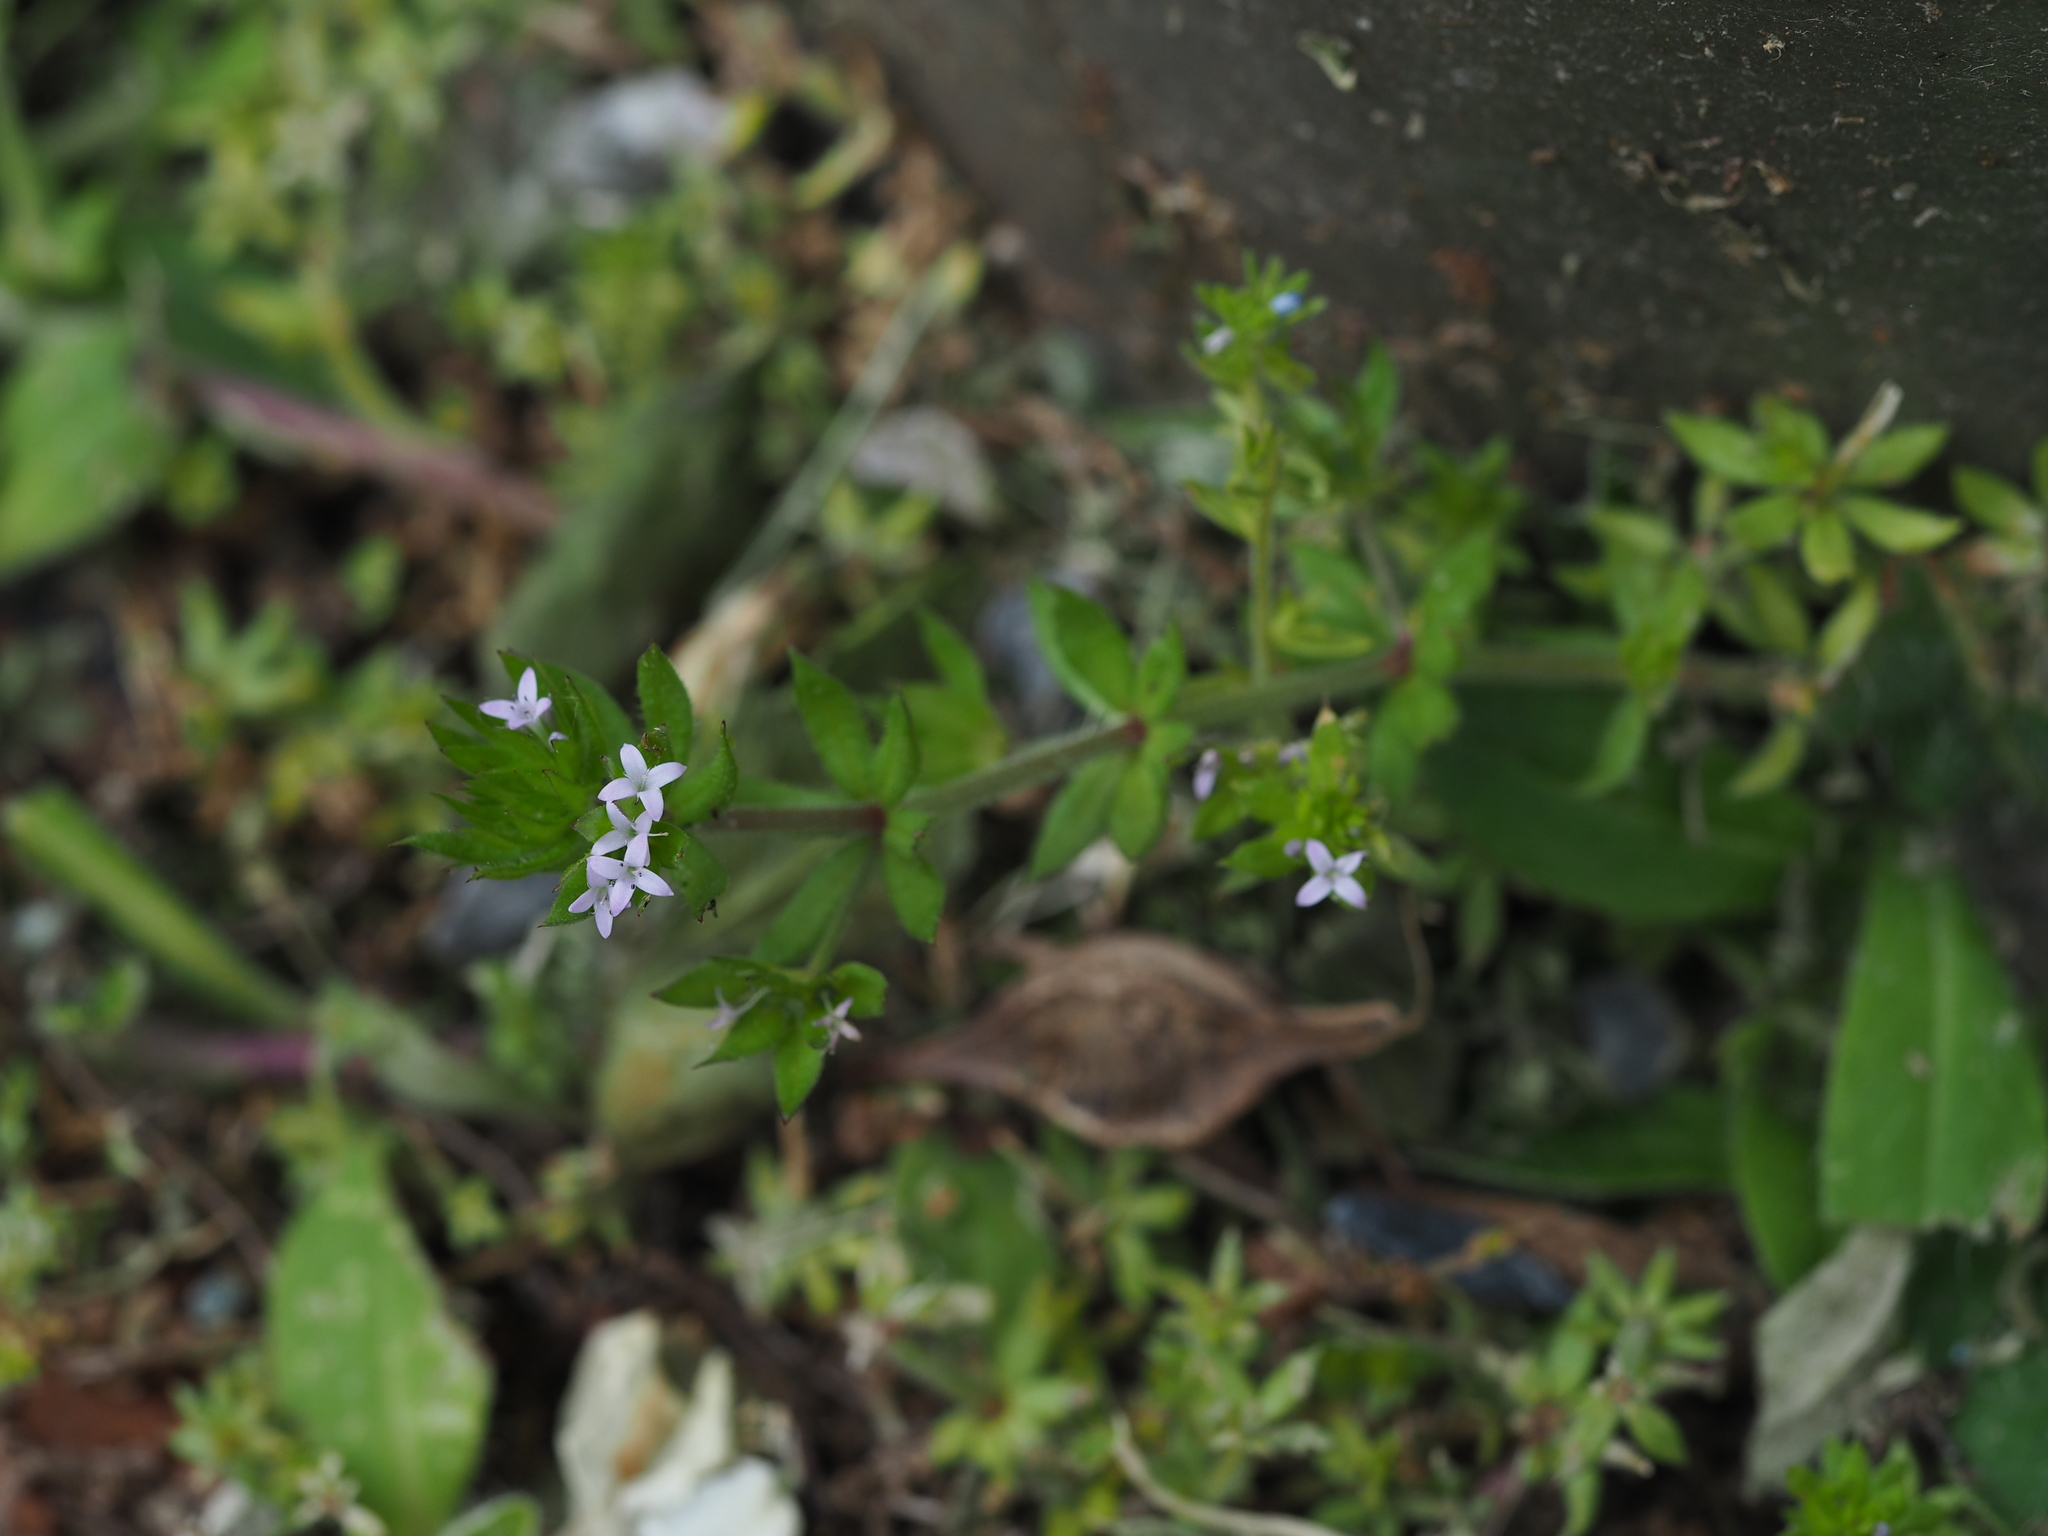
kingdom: Plantae
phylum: Tracheophyta
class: Magnoliopsida
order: Gentianales
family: Rubiaceae
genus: Sherardia
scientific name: Sherardia arvensis
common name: Field madder
